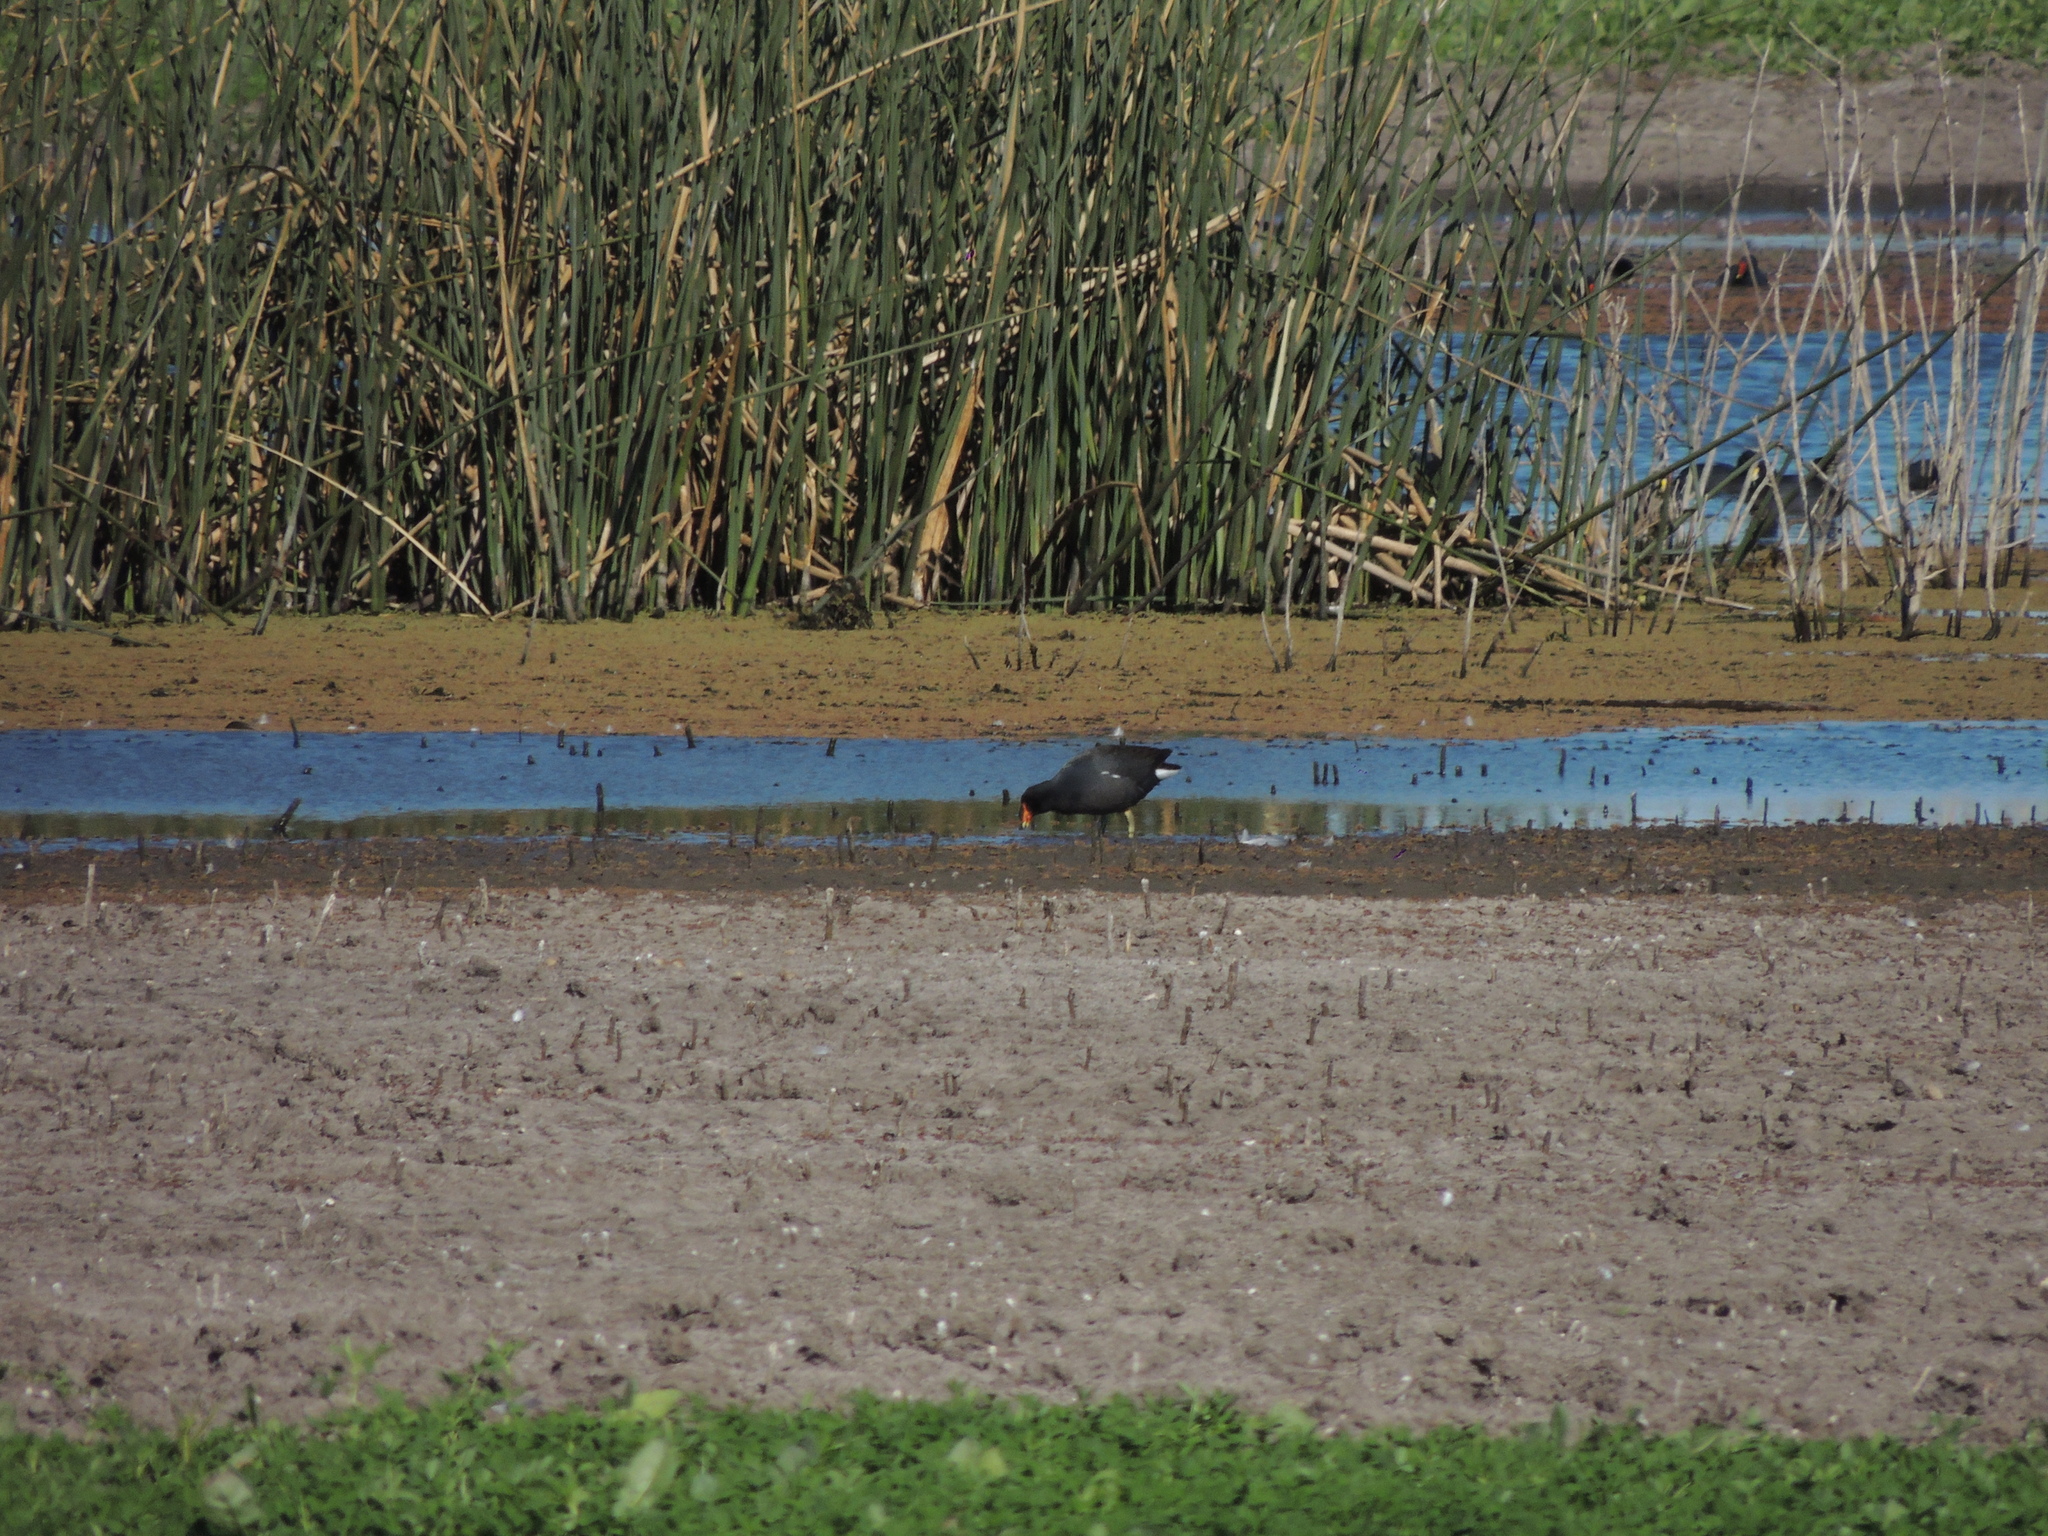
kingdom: Animalia
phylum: Chordata
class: Aves
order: Gruiformes
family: Rallidae
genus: Gallinula
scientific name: Gallinula chloropus
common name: Common moorhen
